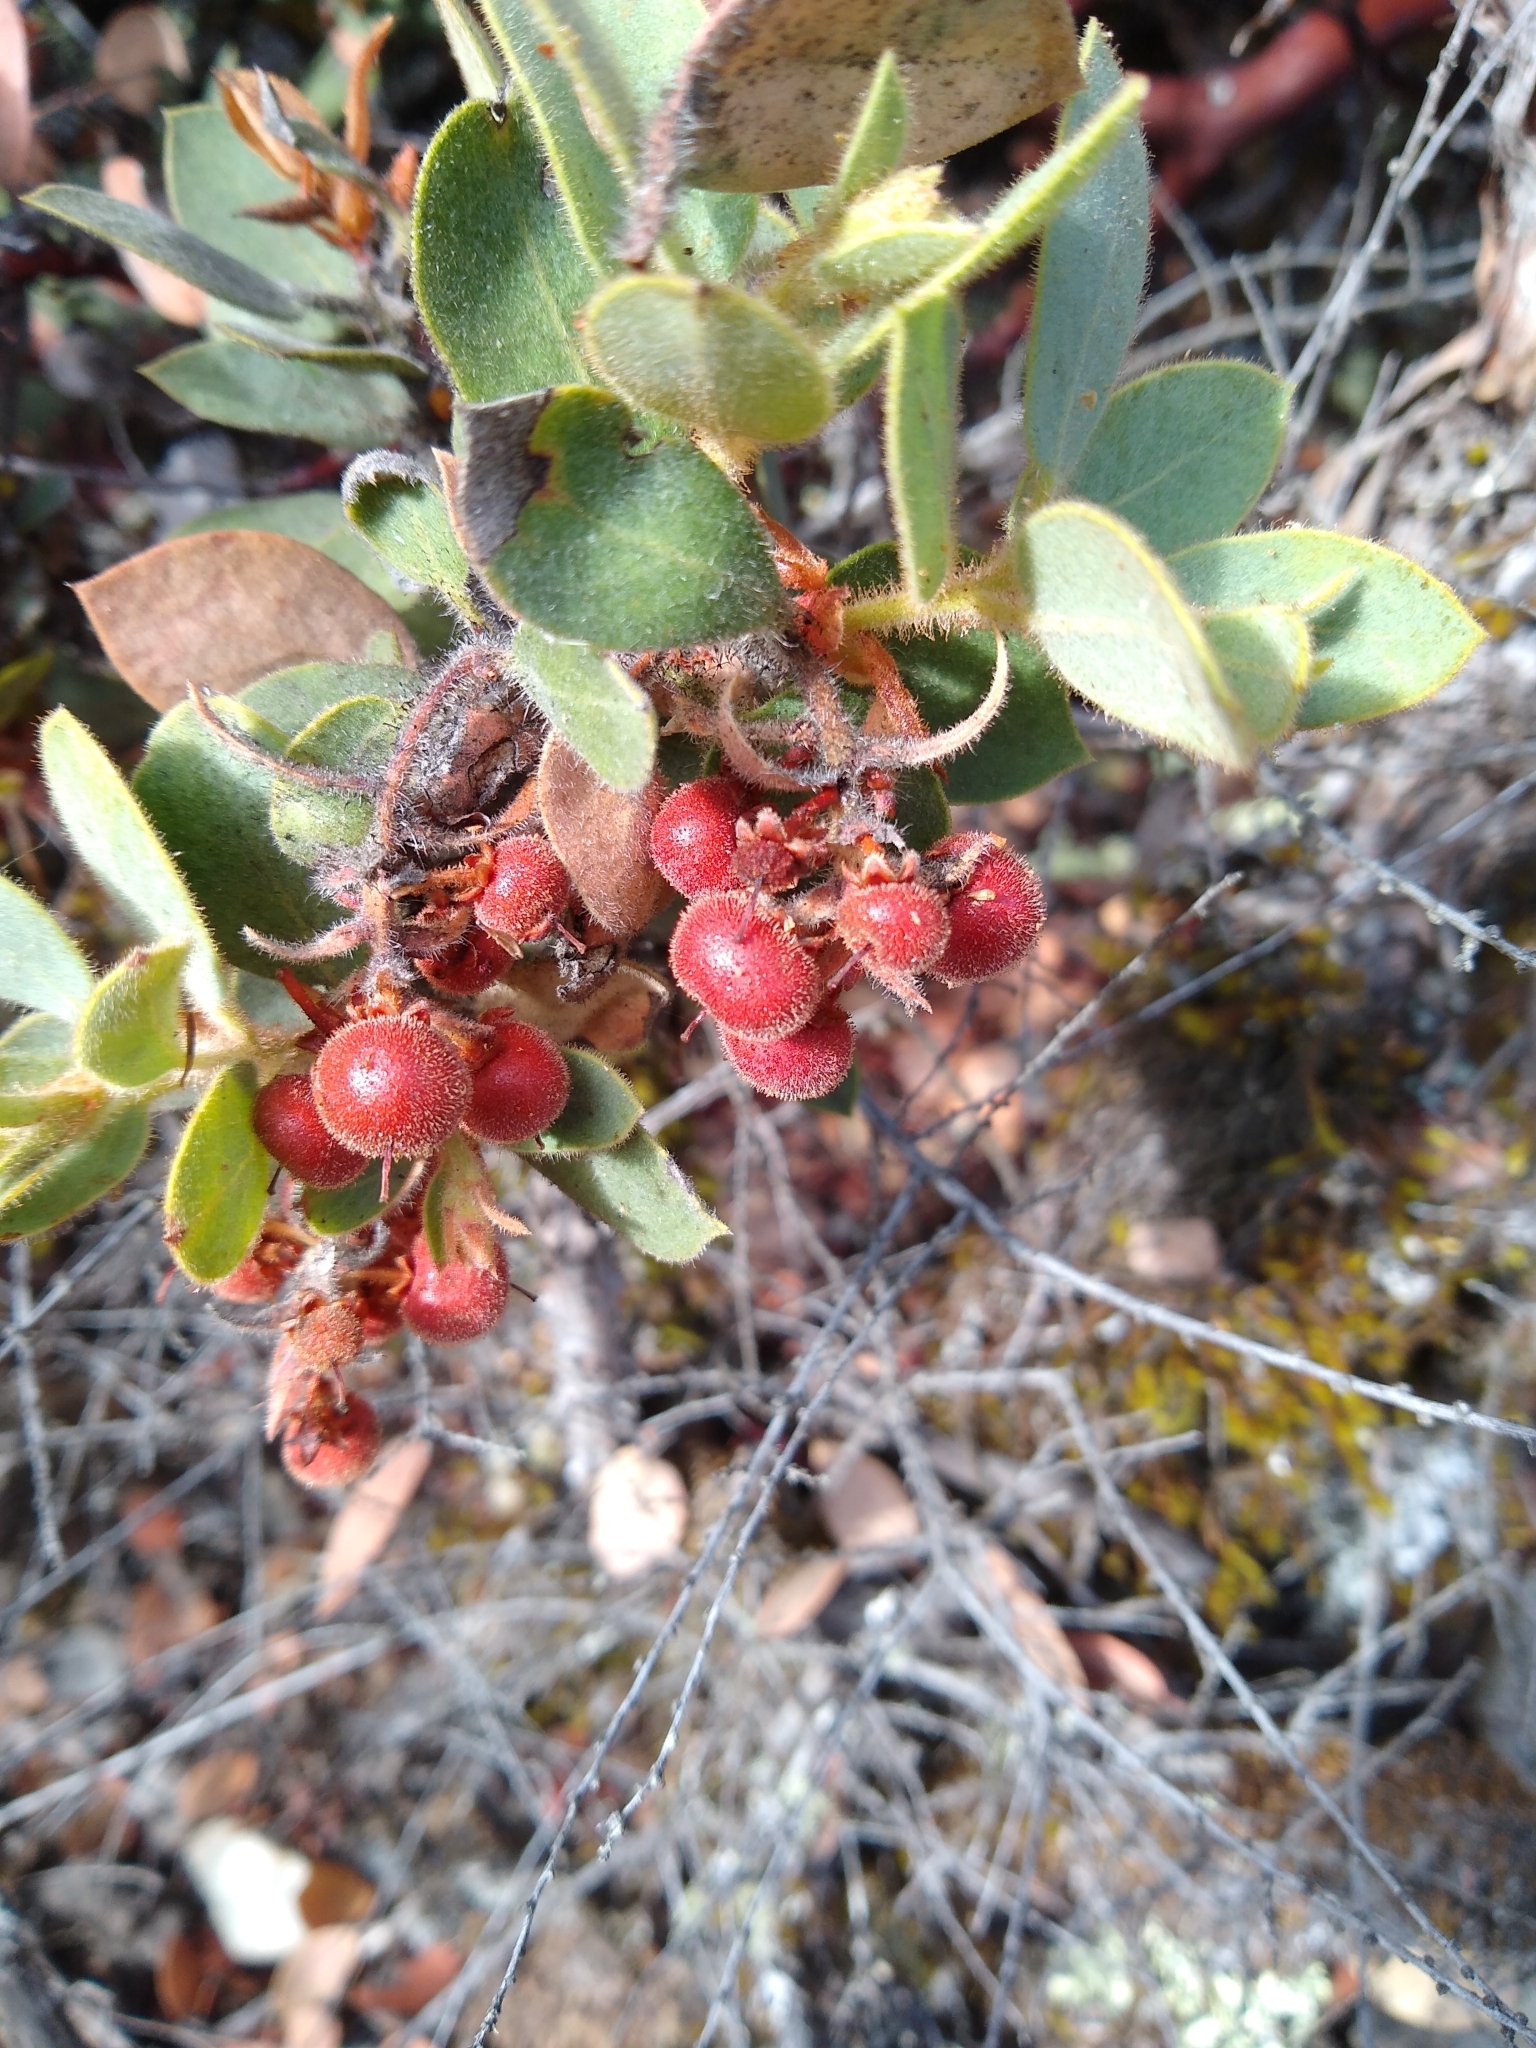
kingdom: Plantae
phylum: Tracheophyta
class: Magnoliopsida
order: Ericales
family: Ericaceae
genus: Arctostaphylos
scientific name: Arctostaphylos glandulosa
